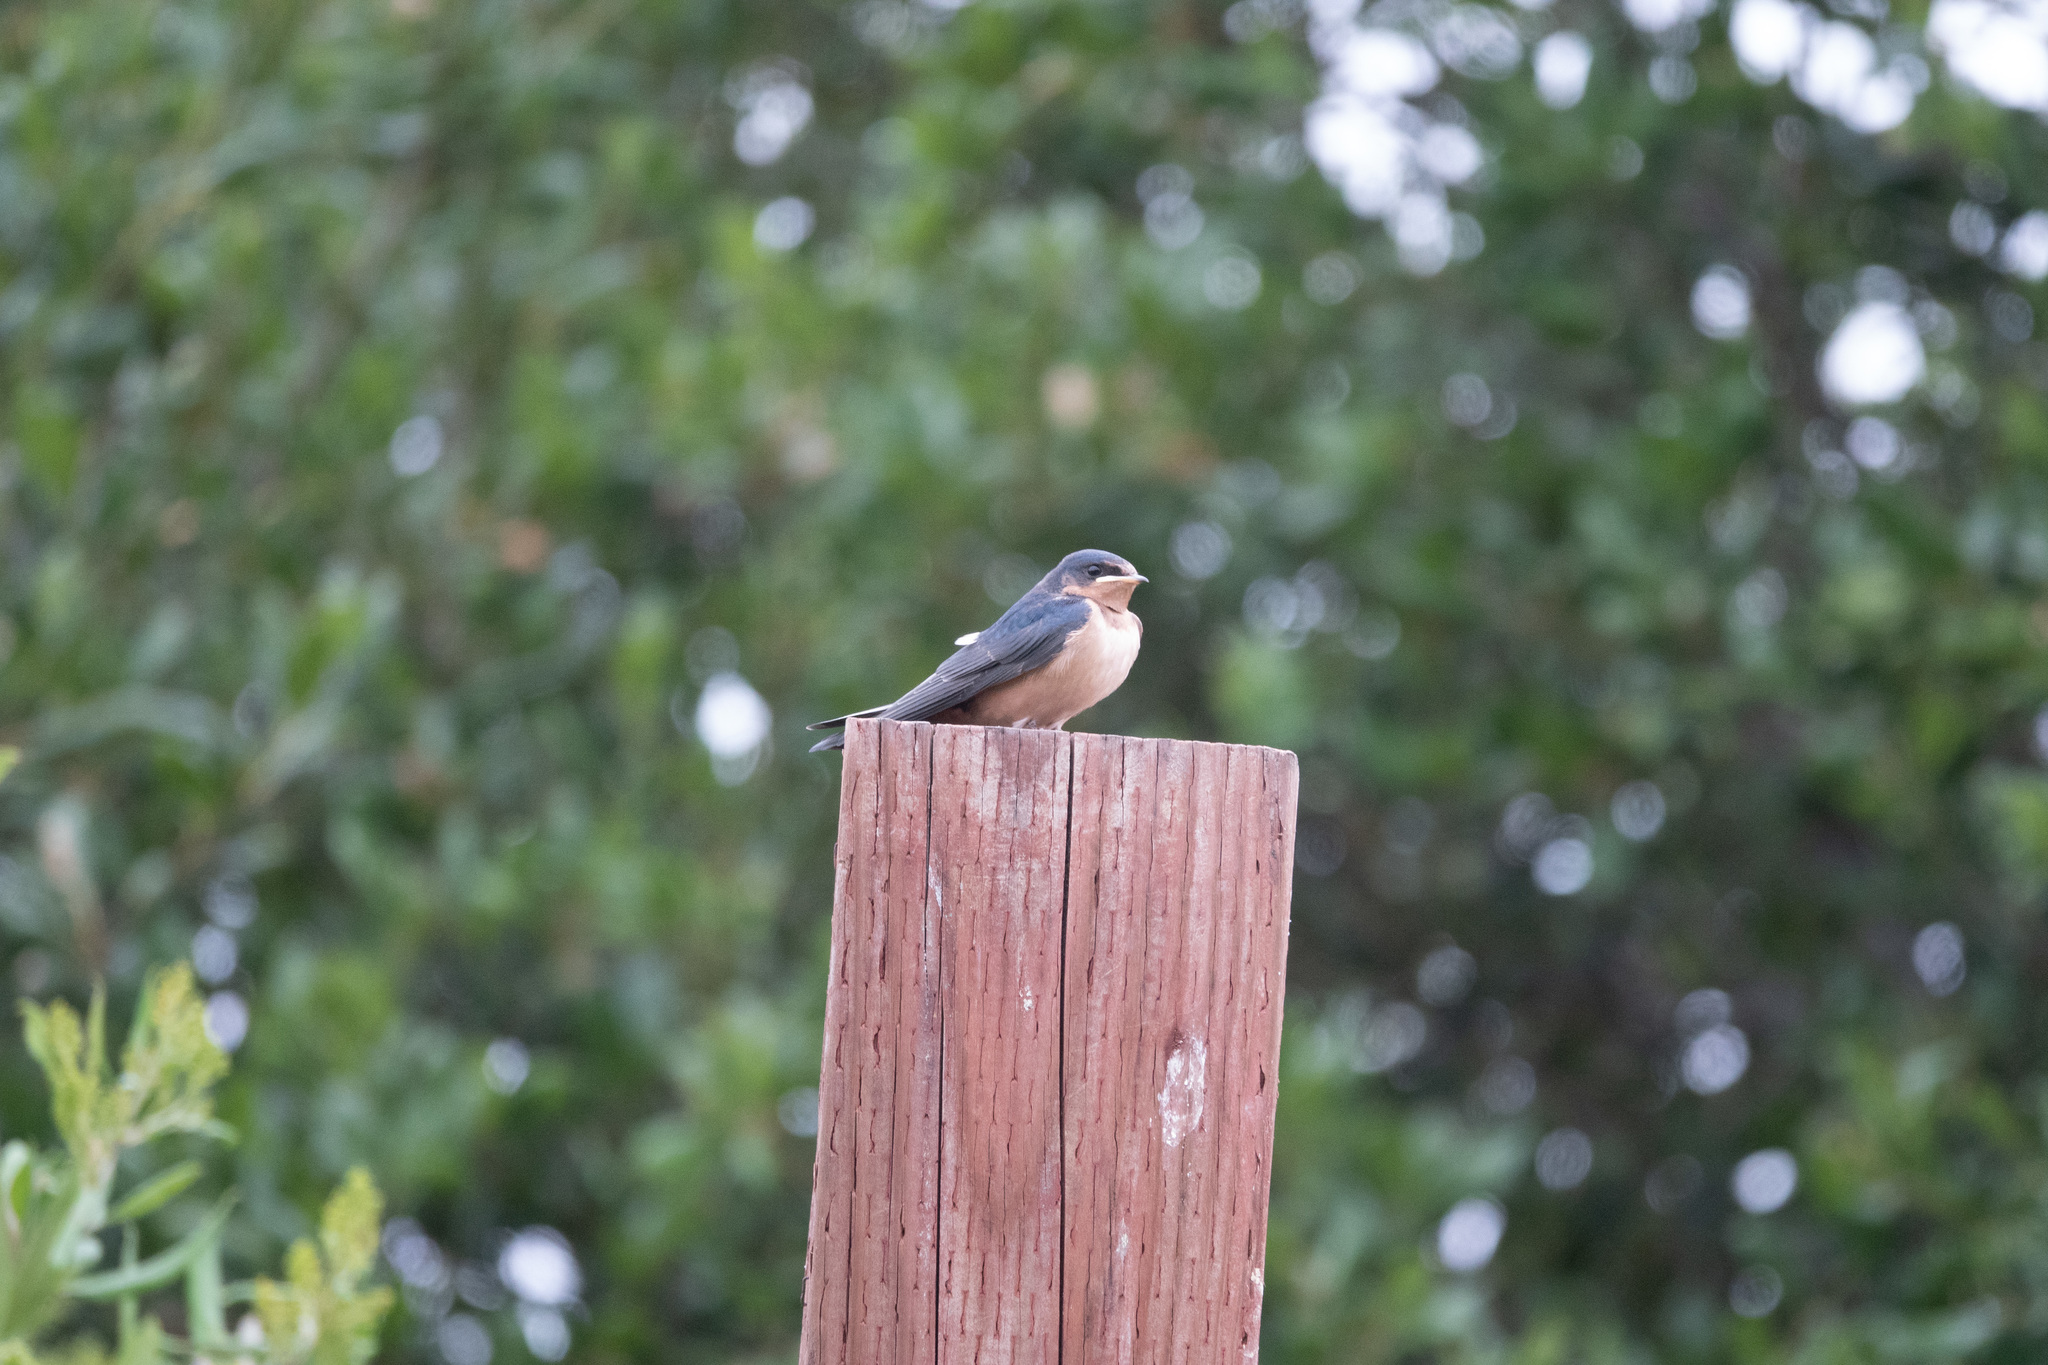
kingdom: Animalia
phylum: Chordata
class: Aves
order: Passeriformes
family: Hirundinidae
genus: Hirundo
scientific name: Hirundo rustica
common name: Barn swallow
